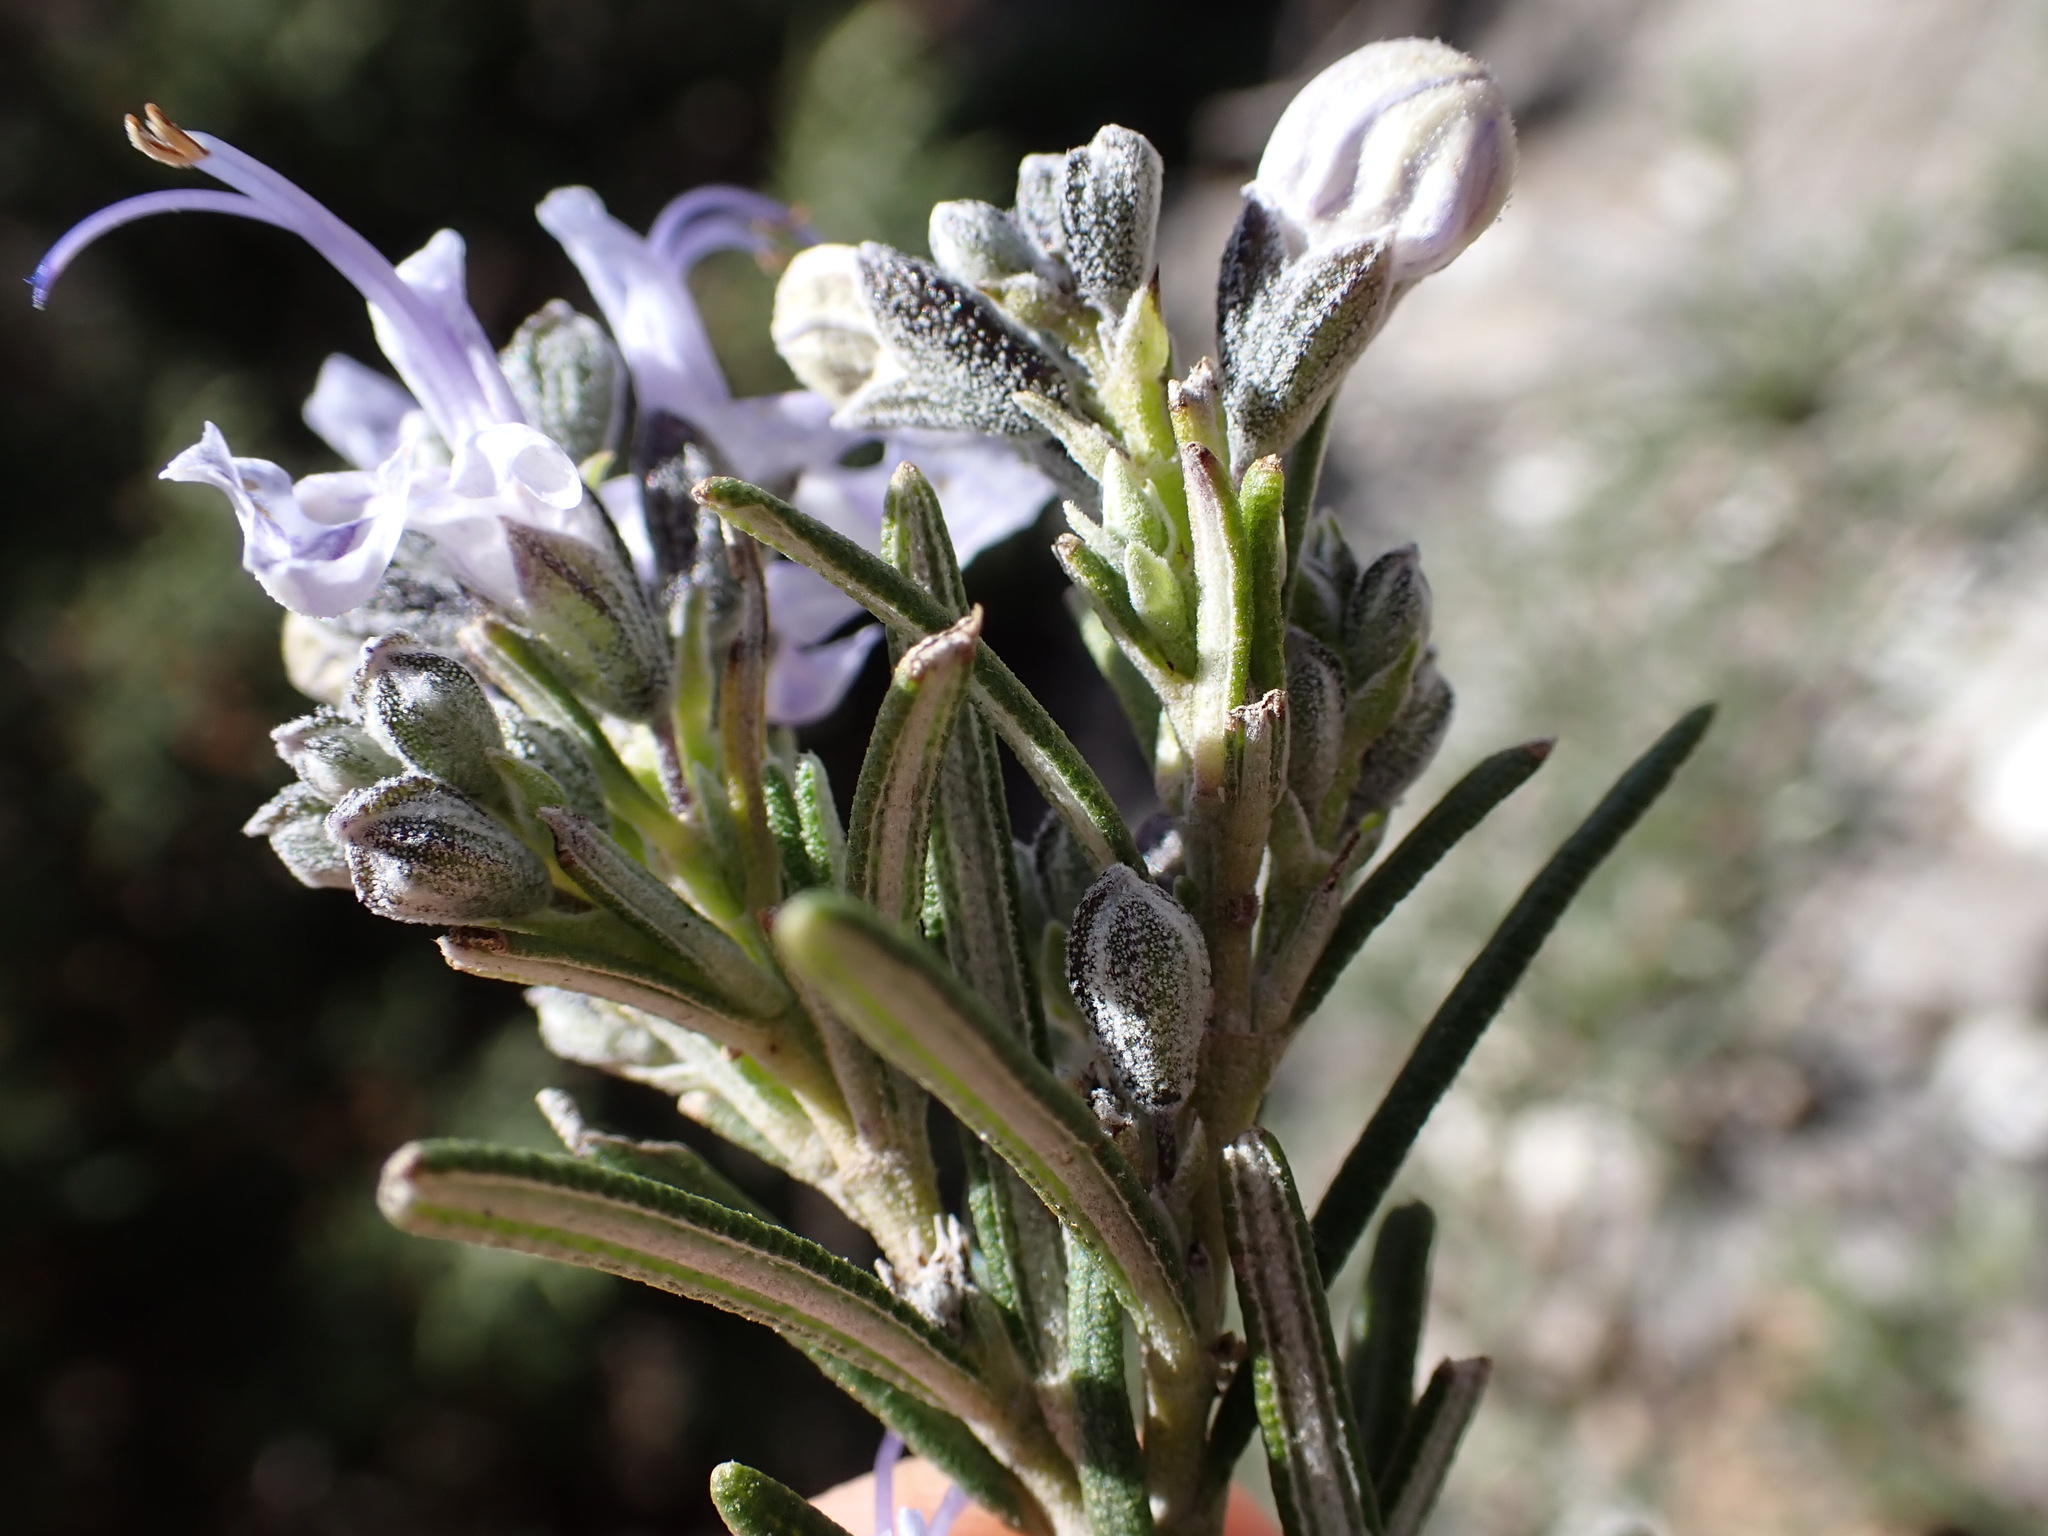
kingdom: Plantae
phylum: Tracheophyta
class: Magnoliopsida
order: Lamiales
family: Lamiaceae
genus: Salvia
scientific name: Salvia rosmarinus
